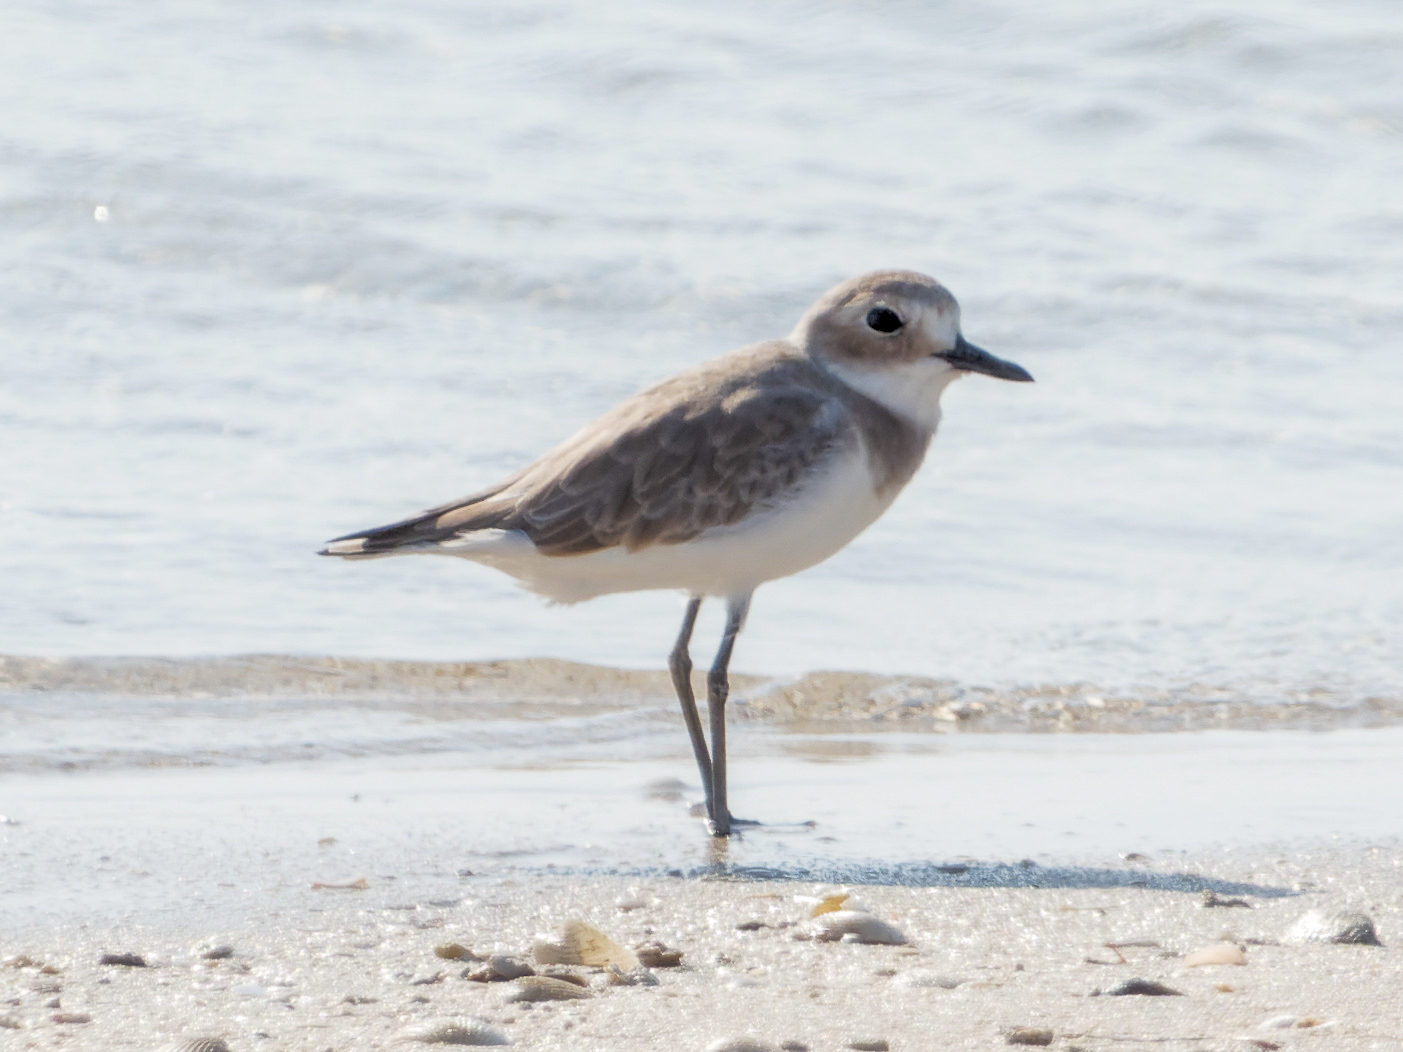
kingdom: Animalia
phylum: Chordata
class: Aves
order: Charadriiformes
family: Charadriidae
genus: Charadrius
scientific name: Charadrius leschenaultii
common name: Greater sand plover
